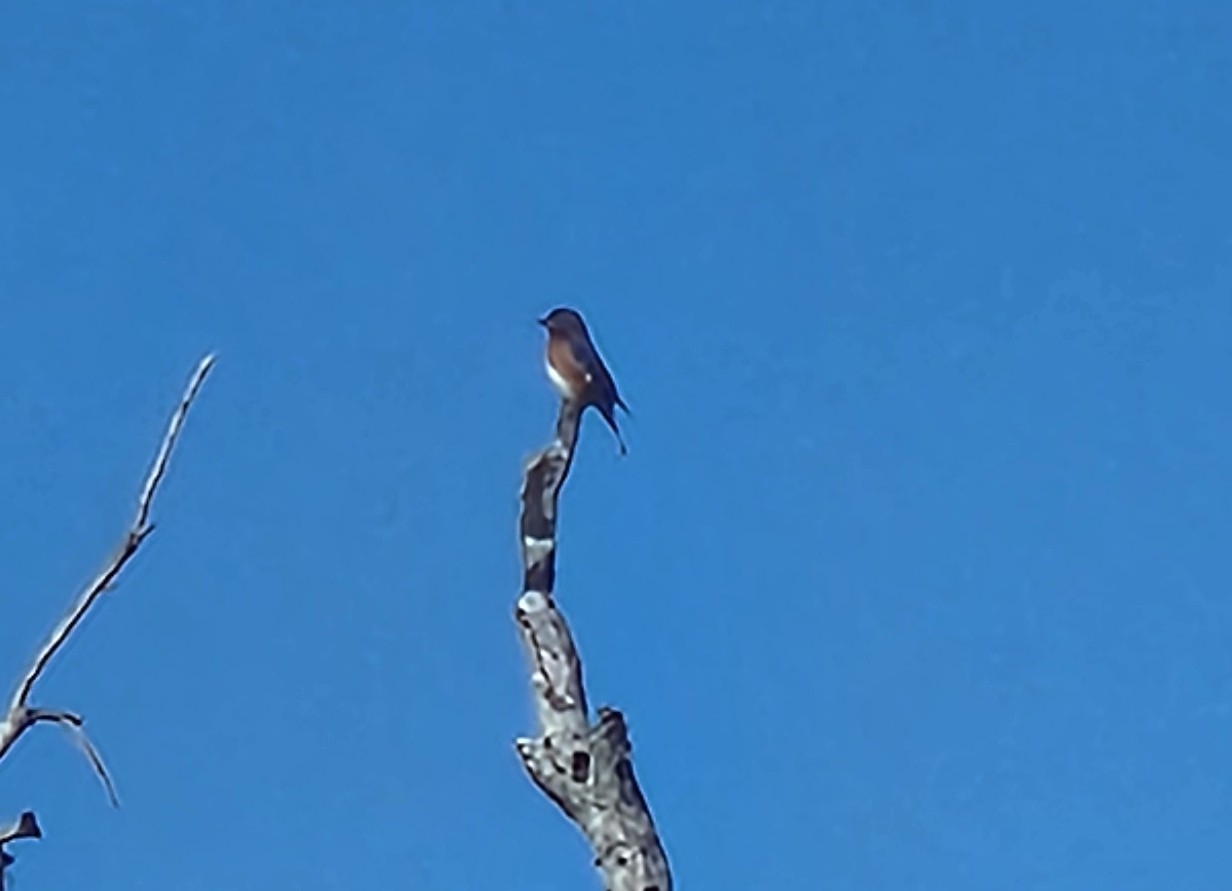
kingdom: Animalia
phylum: Chordata
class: Aves
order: Passeriformes
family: Turdidae
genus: Sialia
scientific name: Sialia sialis
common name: Eastern bluebird
